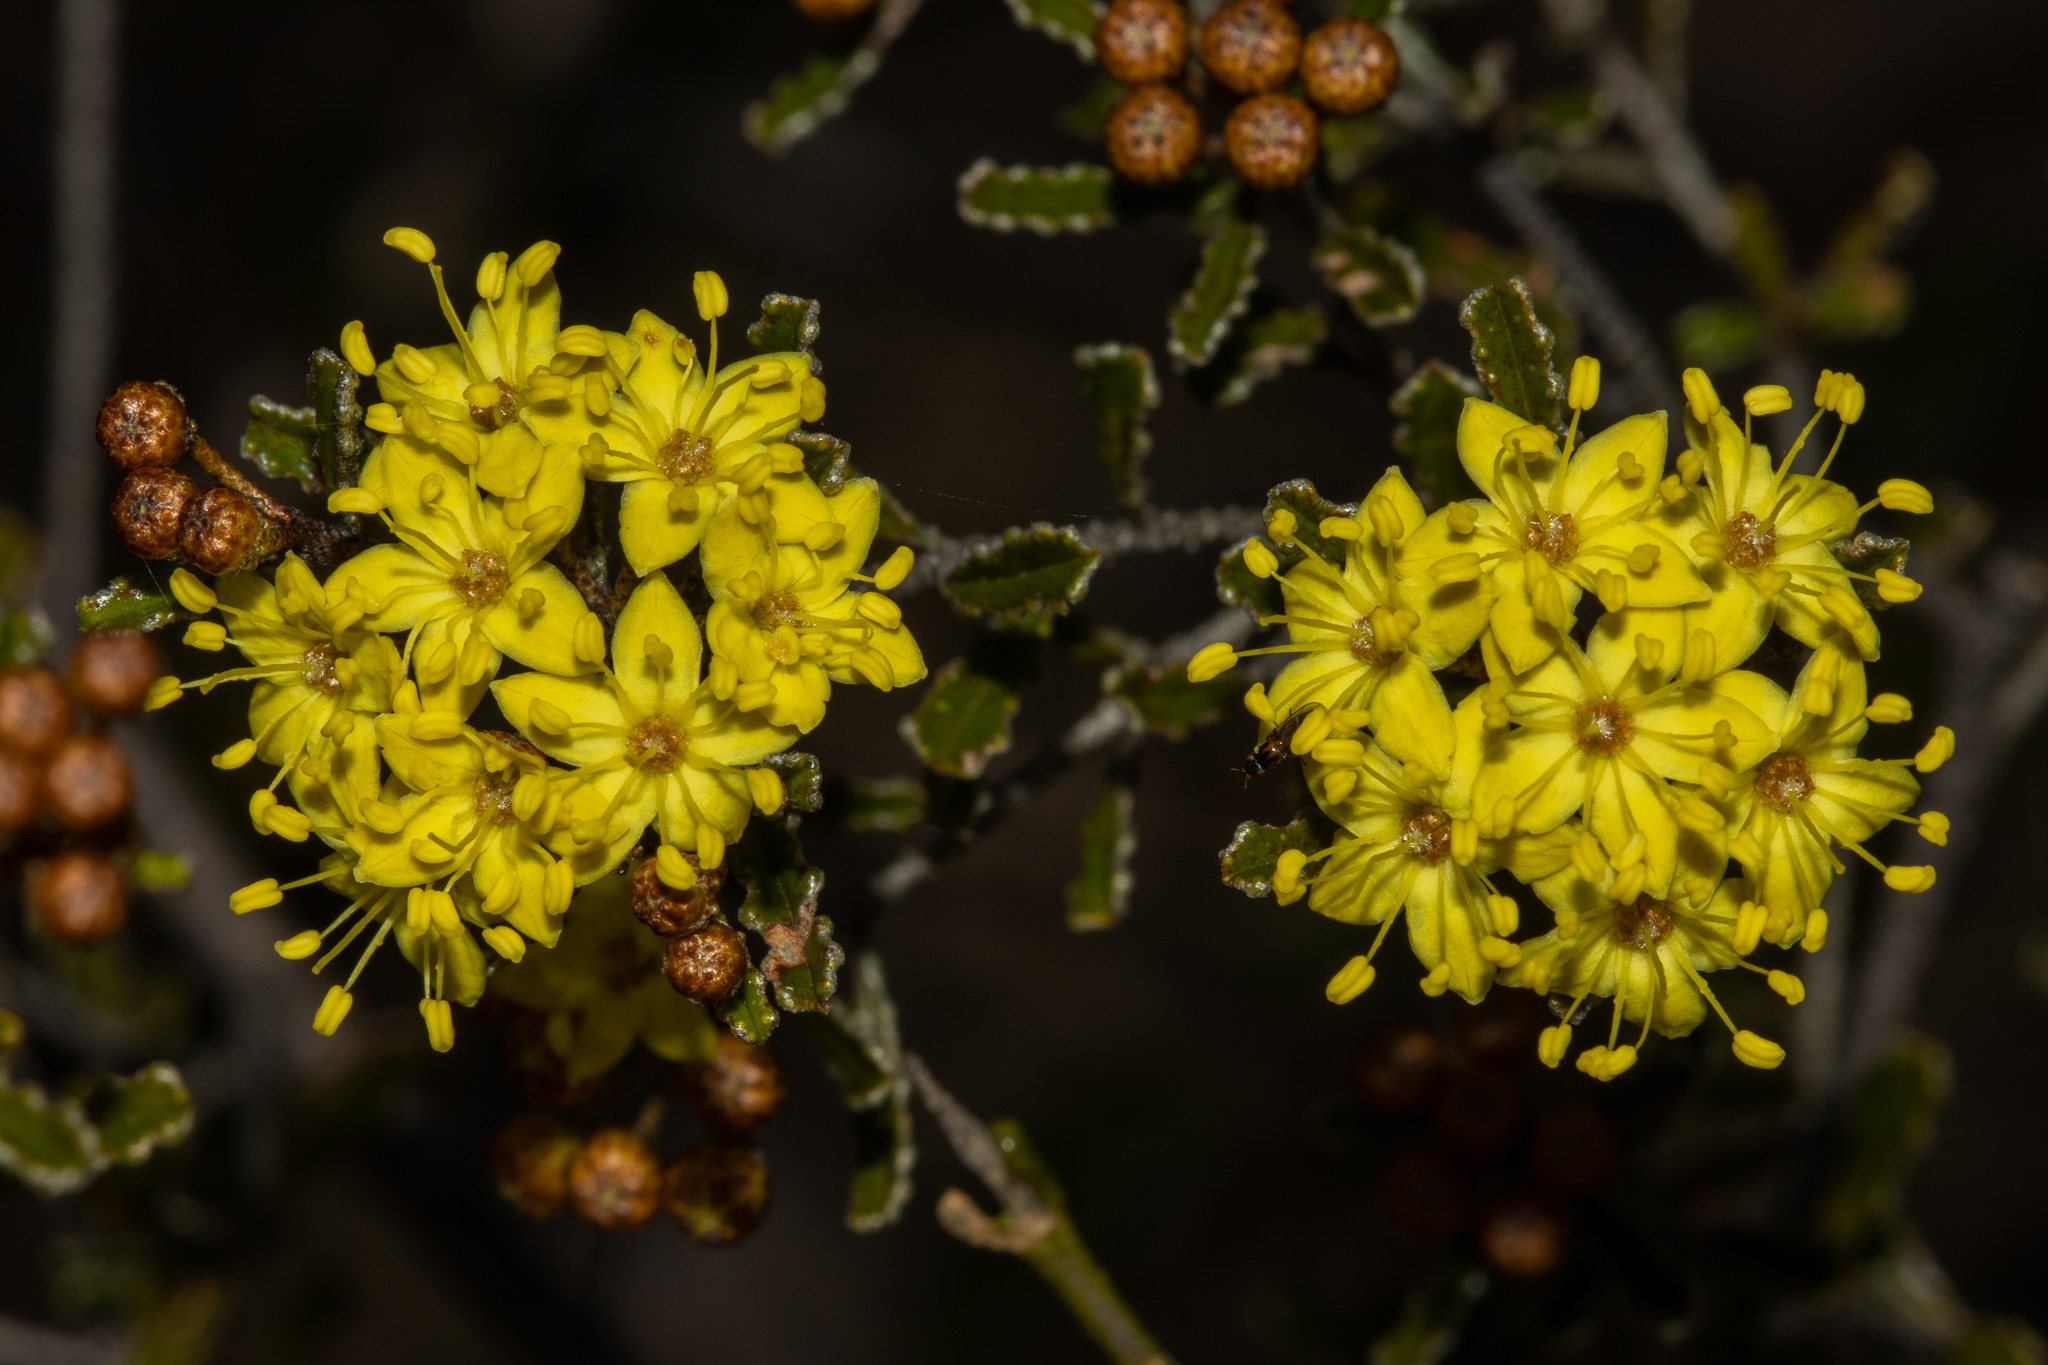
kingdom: Plantae
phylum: Tracheophyta
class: Magnoliopsida
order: Sapindales
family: Rutaceae
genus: Phebalium
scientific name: Phebalium bullatum
